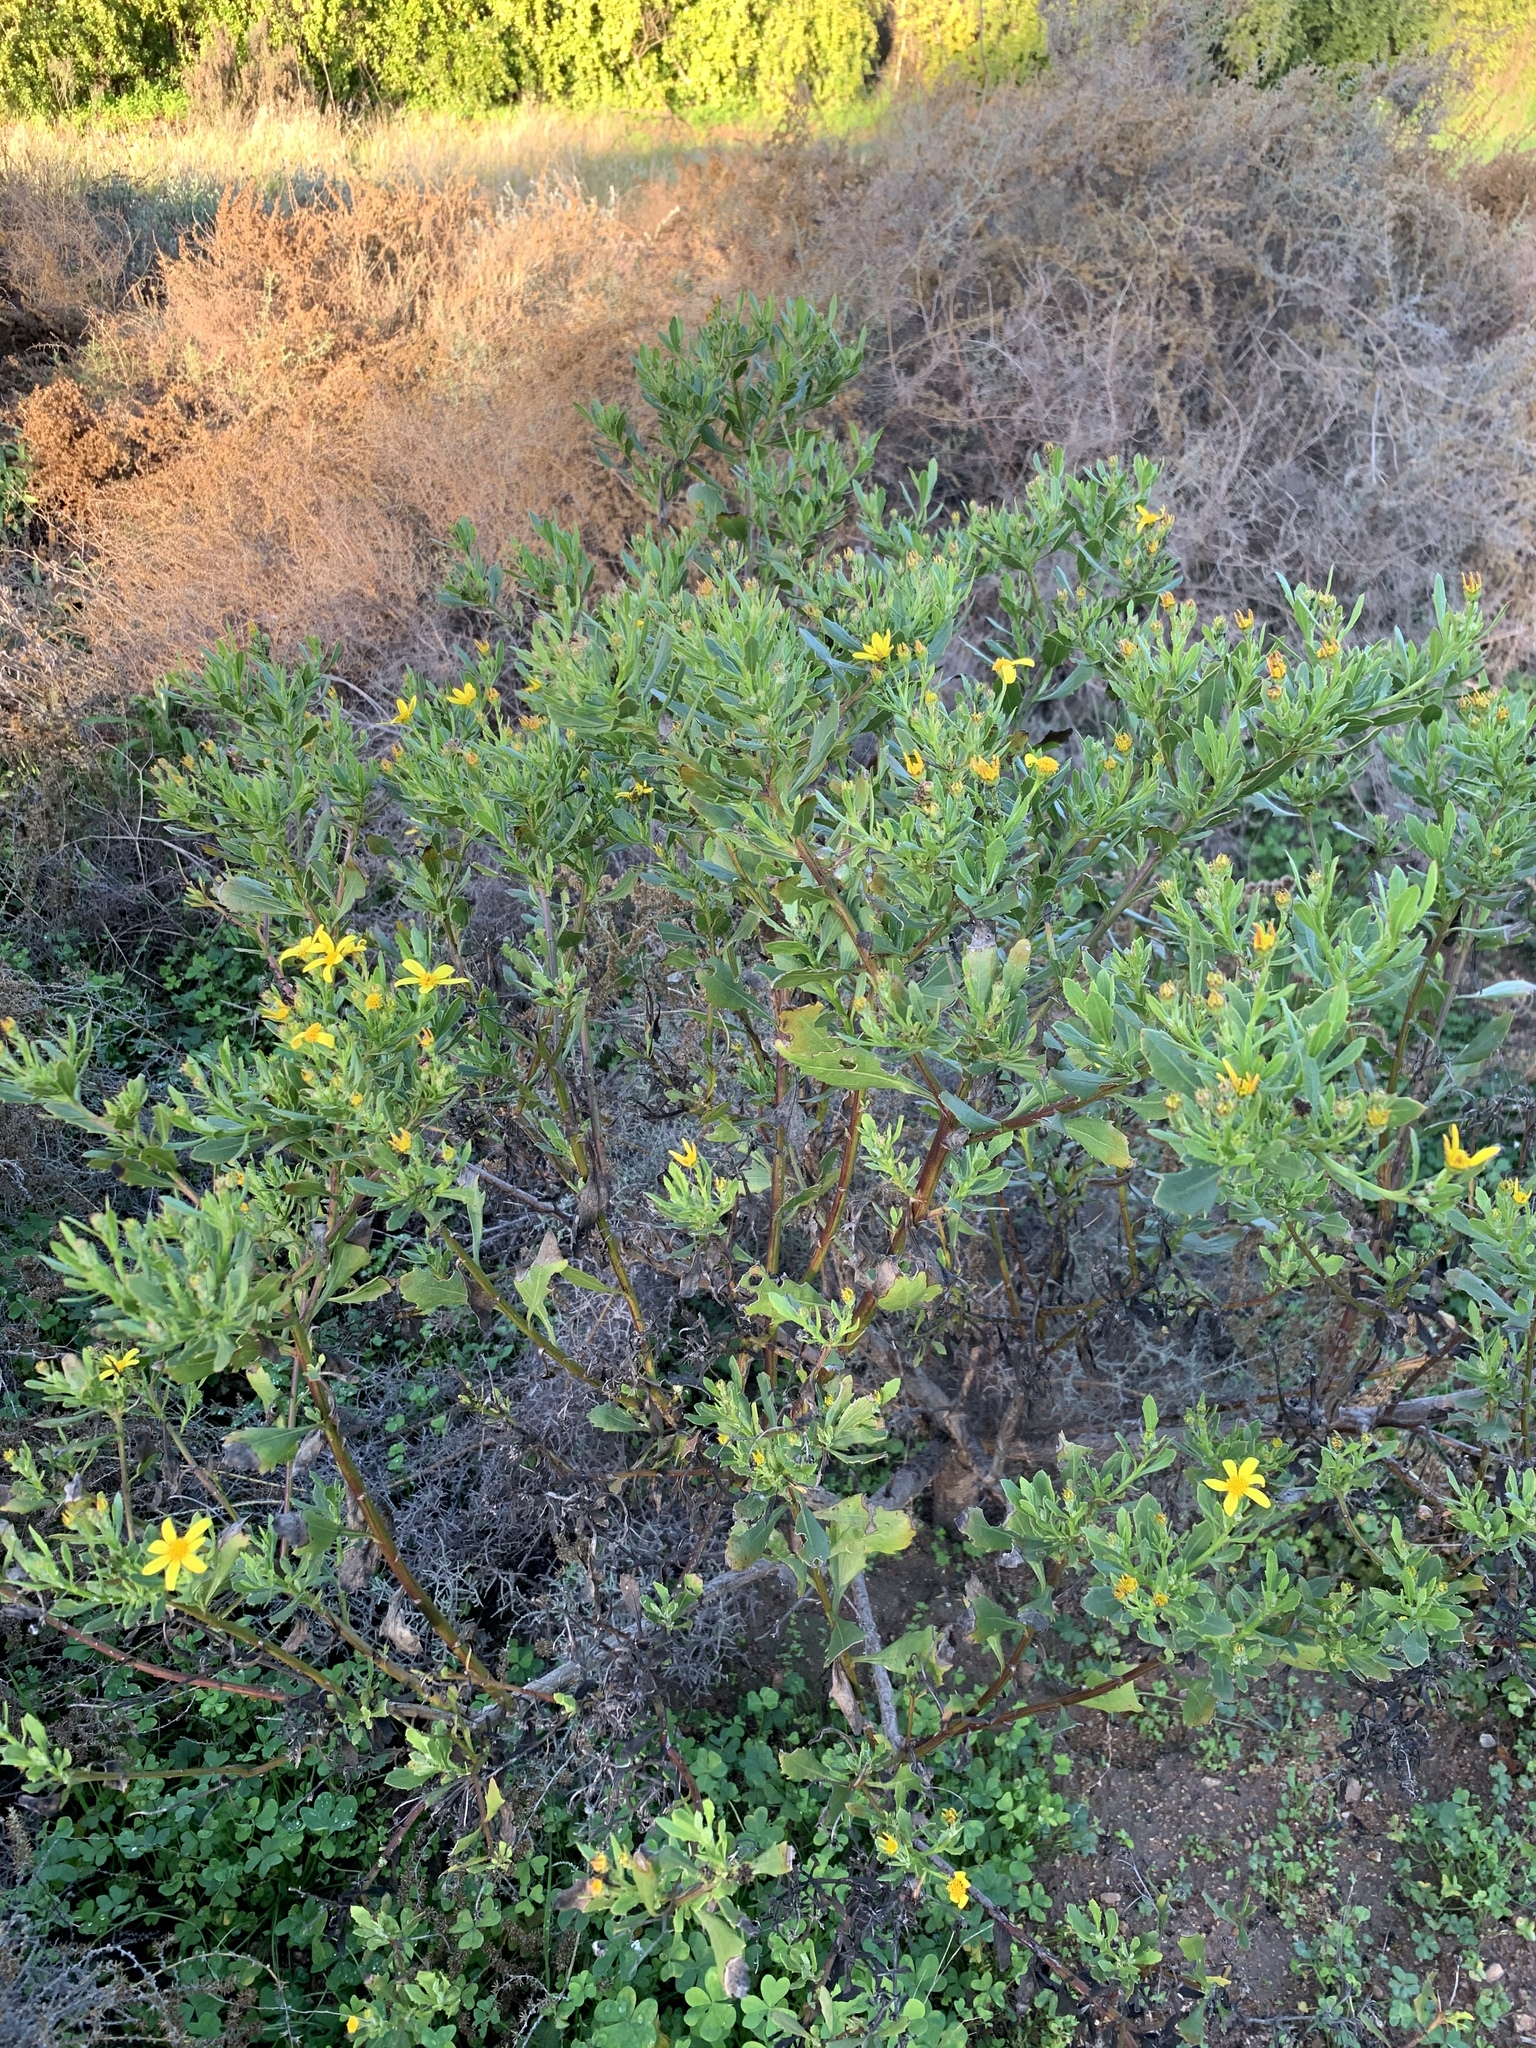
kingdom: Plantae
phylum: Tracheophyta
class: Magnoliopsida
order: Asterales
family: Asteraceae
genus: Osteospermum
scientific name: Osteospermum moniliferum
